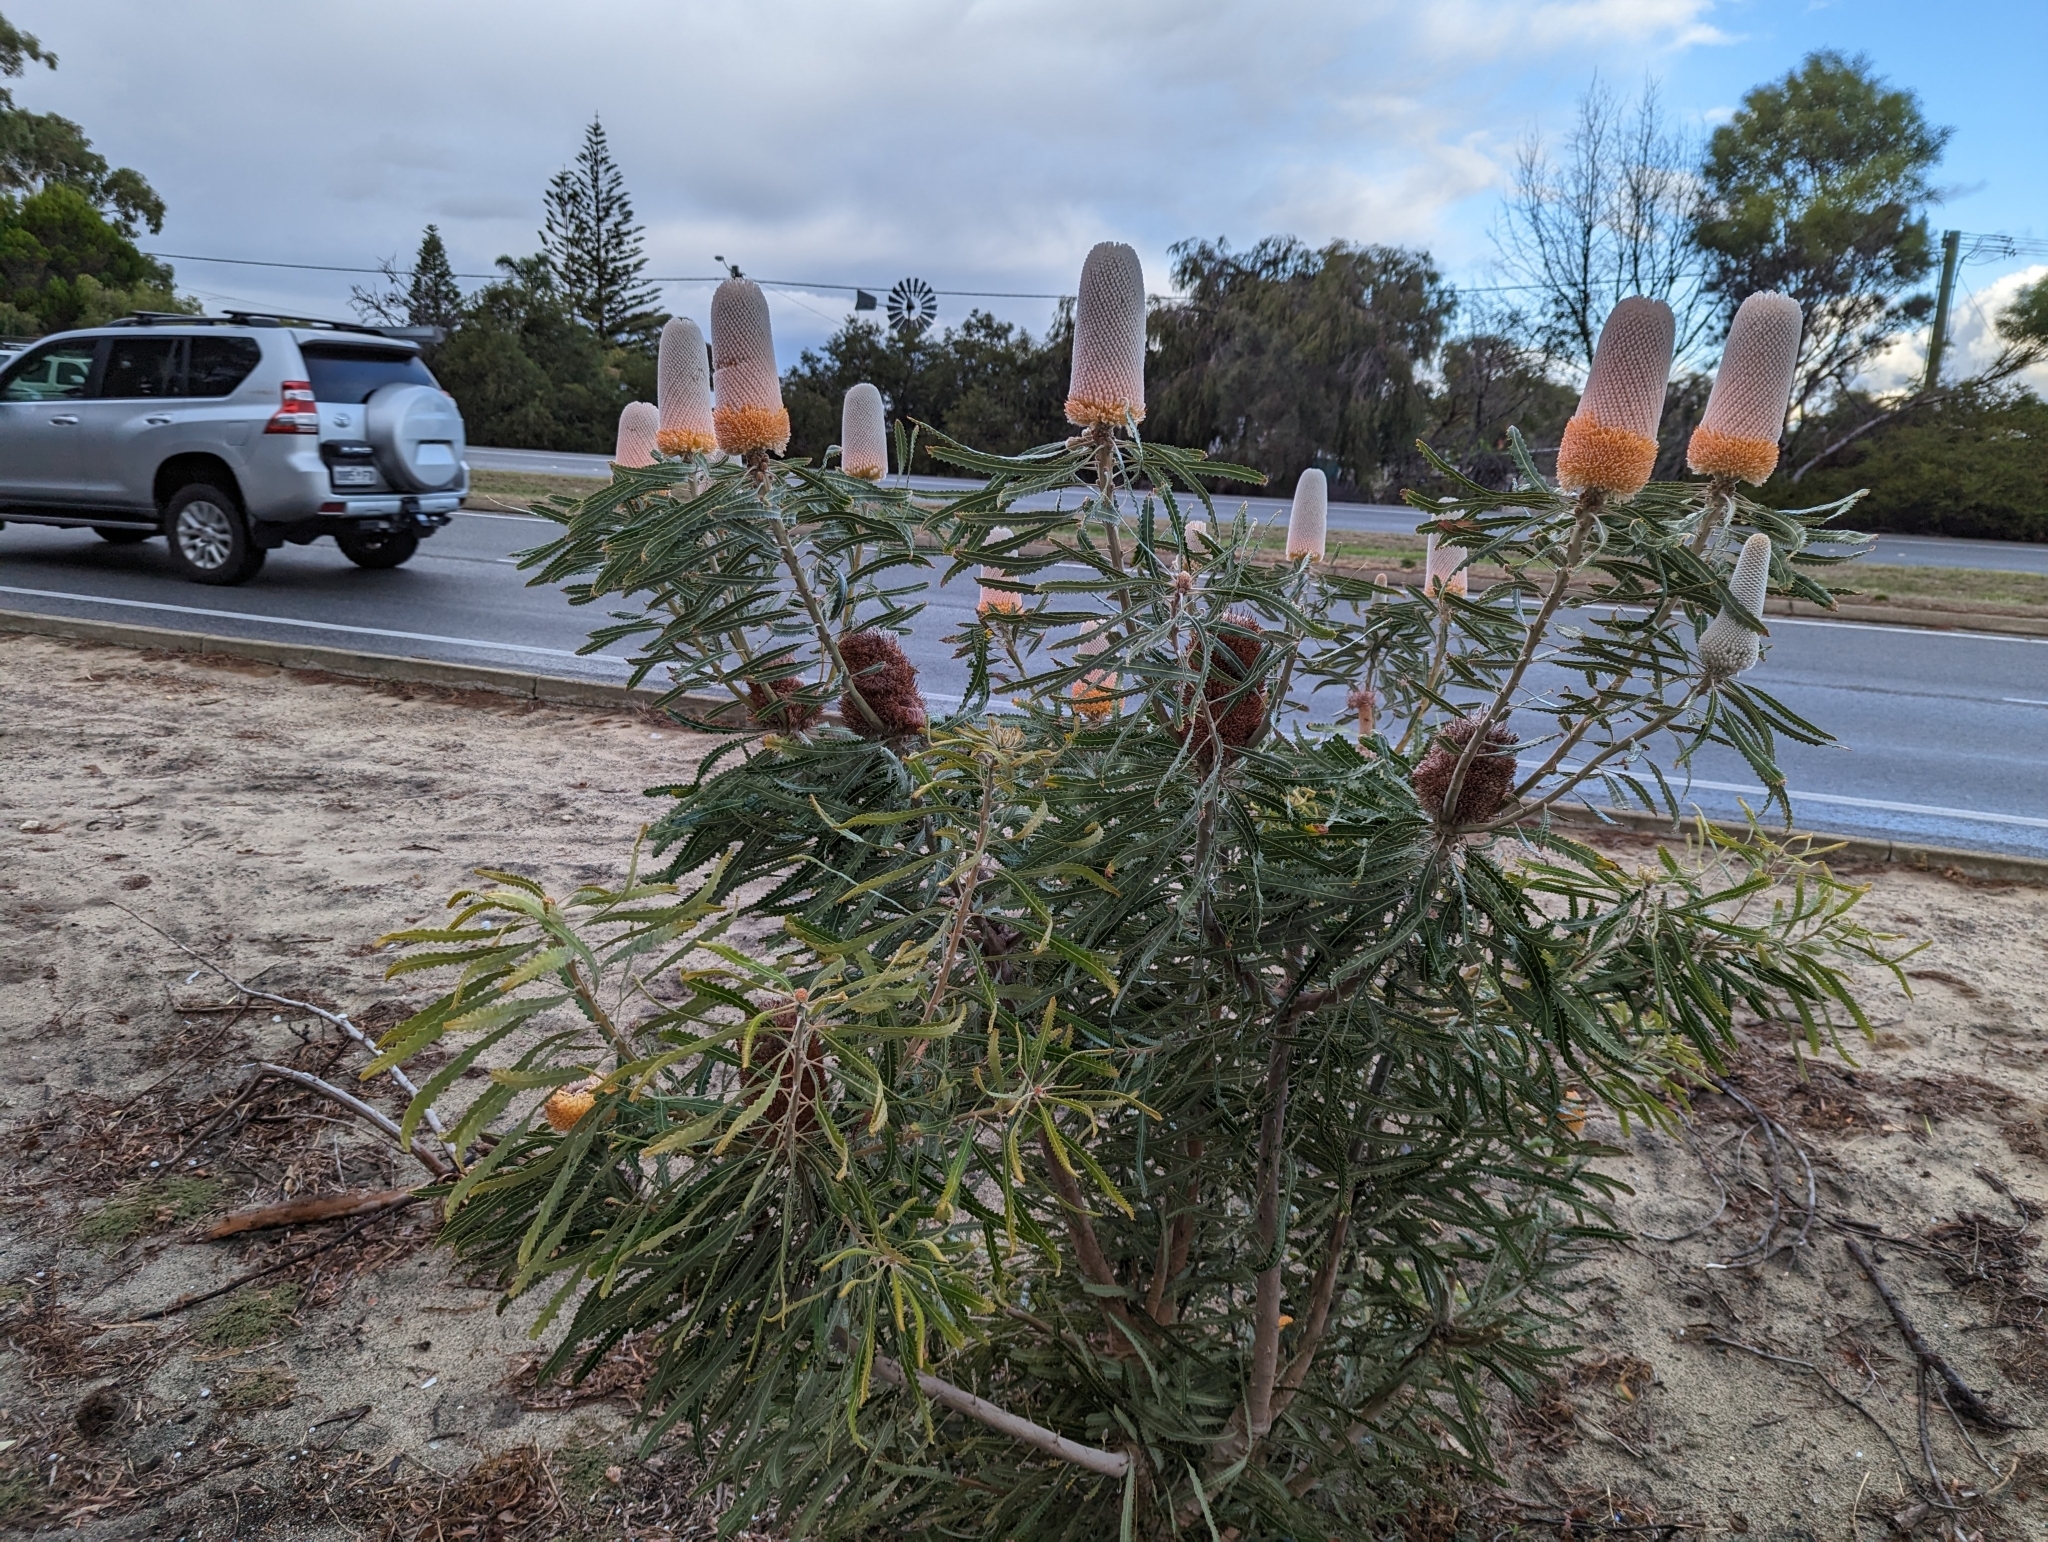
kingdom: Plantae
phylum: Tracheophyta
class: Magnoliopsida
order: Proteales
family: Proteaceae
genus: Banksia
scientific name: Banksia victoriae
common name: Woolly orange banksia
